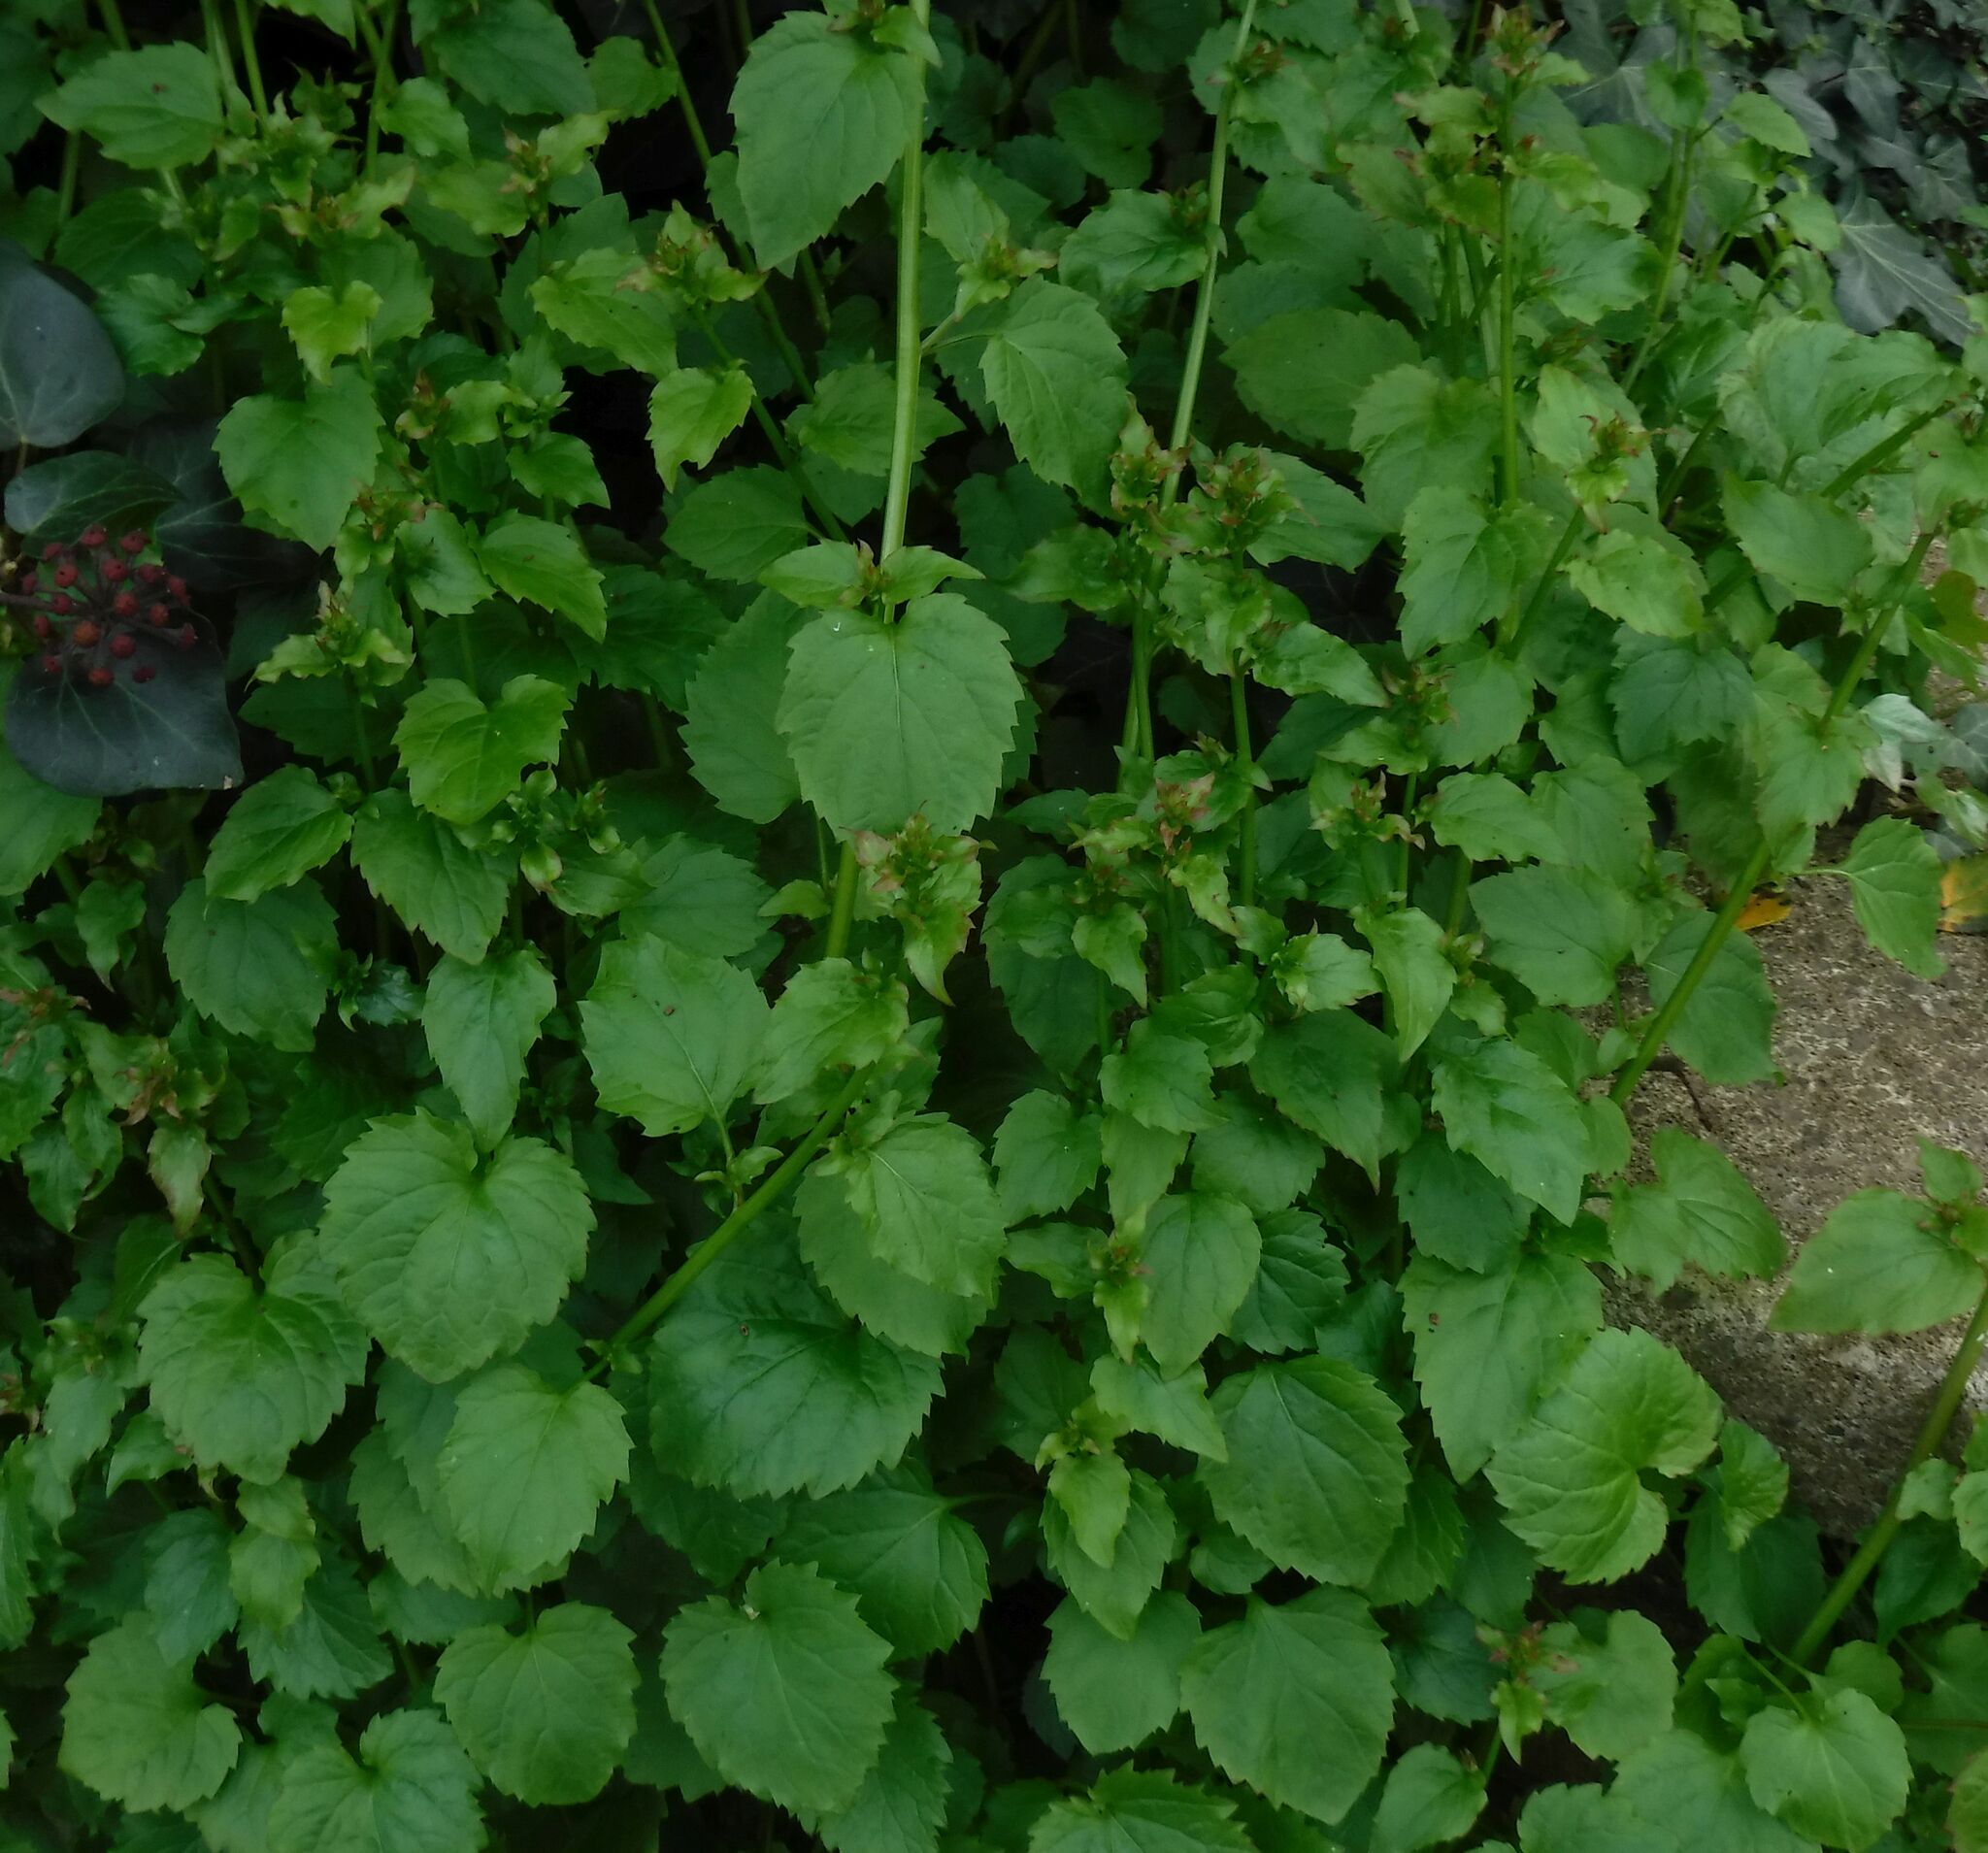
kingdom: Plantae
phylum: Tracheophyta
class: Magnoliopsida
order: Asterales
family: Campanulaceae
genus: Campanula
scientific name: Campanula poscharskyana
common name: Trailing bellflower
